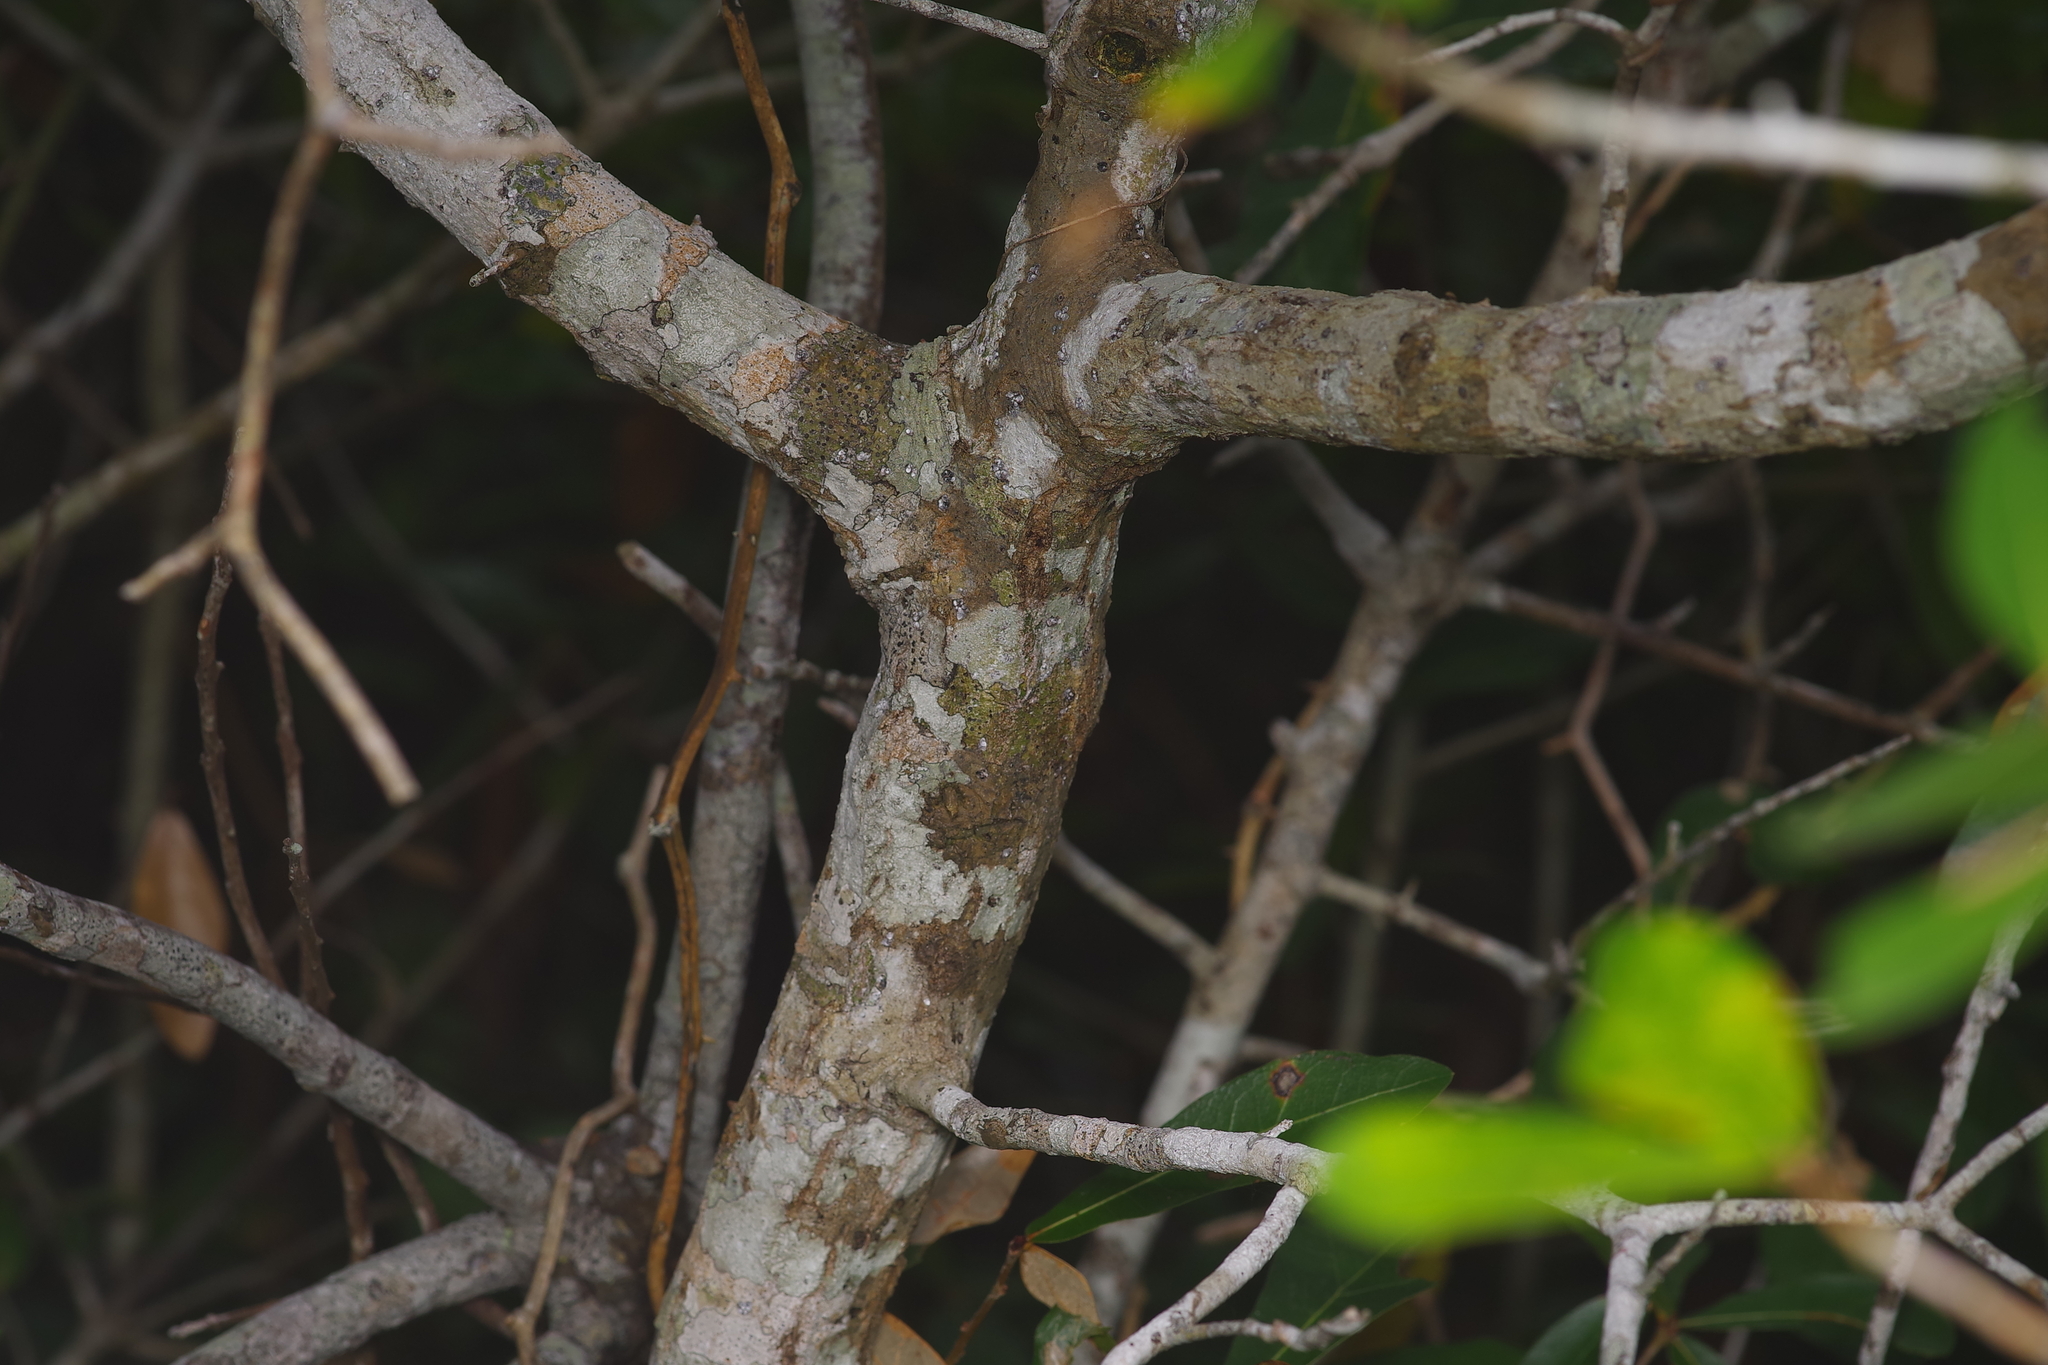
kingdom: Plantae
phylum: Tracheophyta
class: Magnoliopsida
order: Fagales
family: Fagaceae
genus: Quercus
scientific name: Quercus hemisphaerica
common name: Darlington oak
